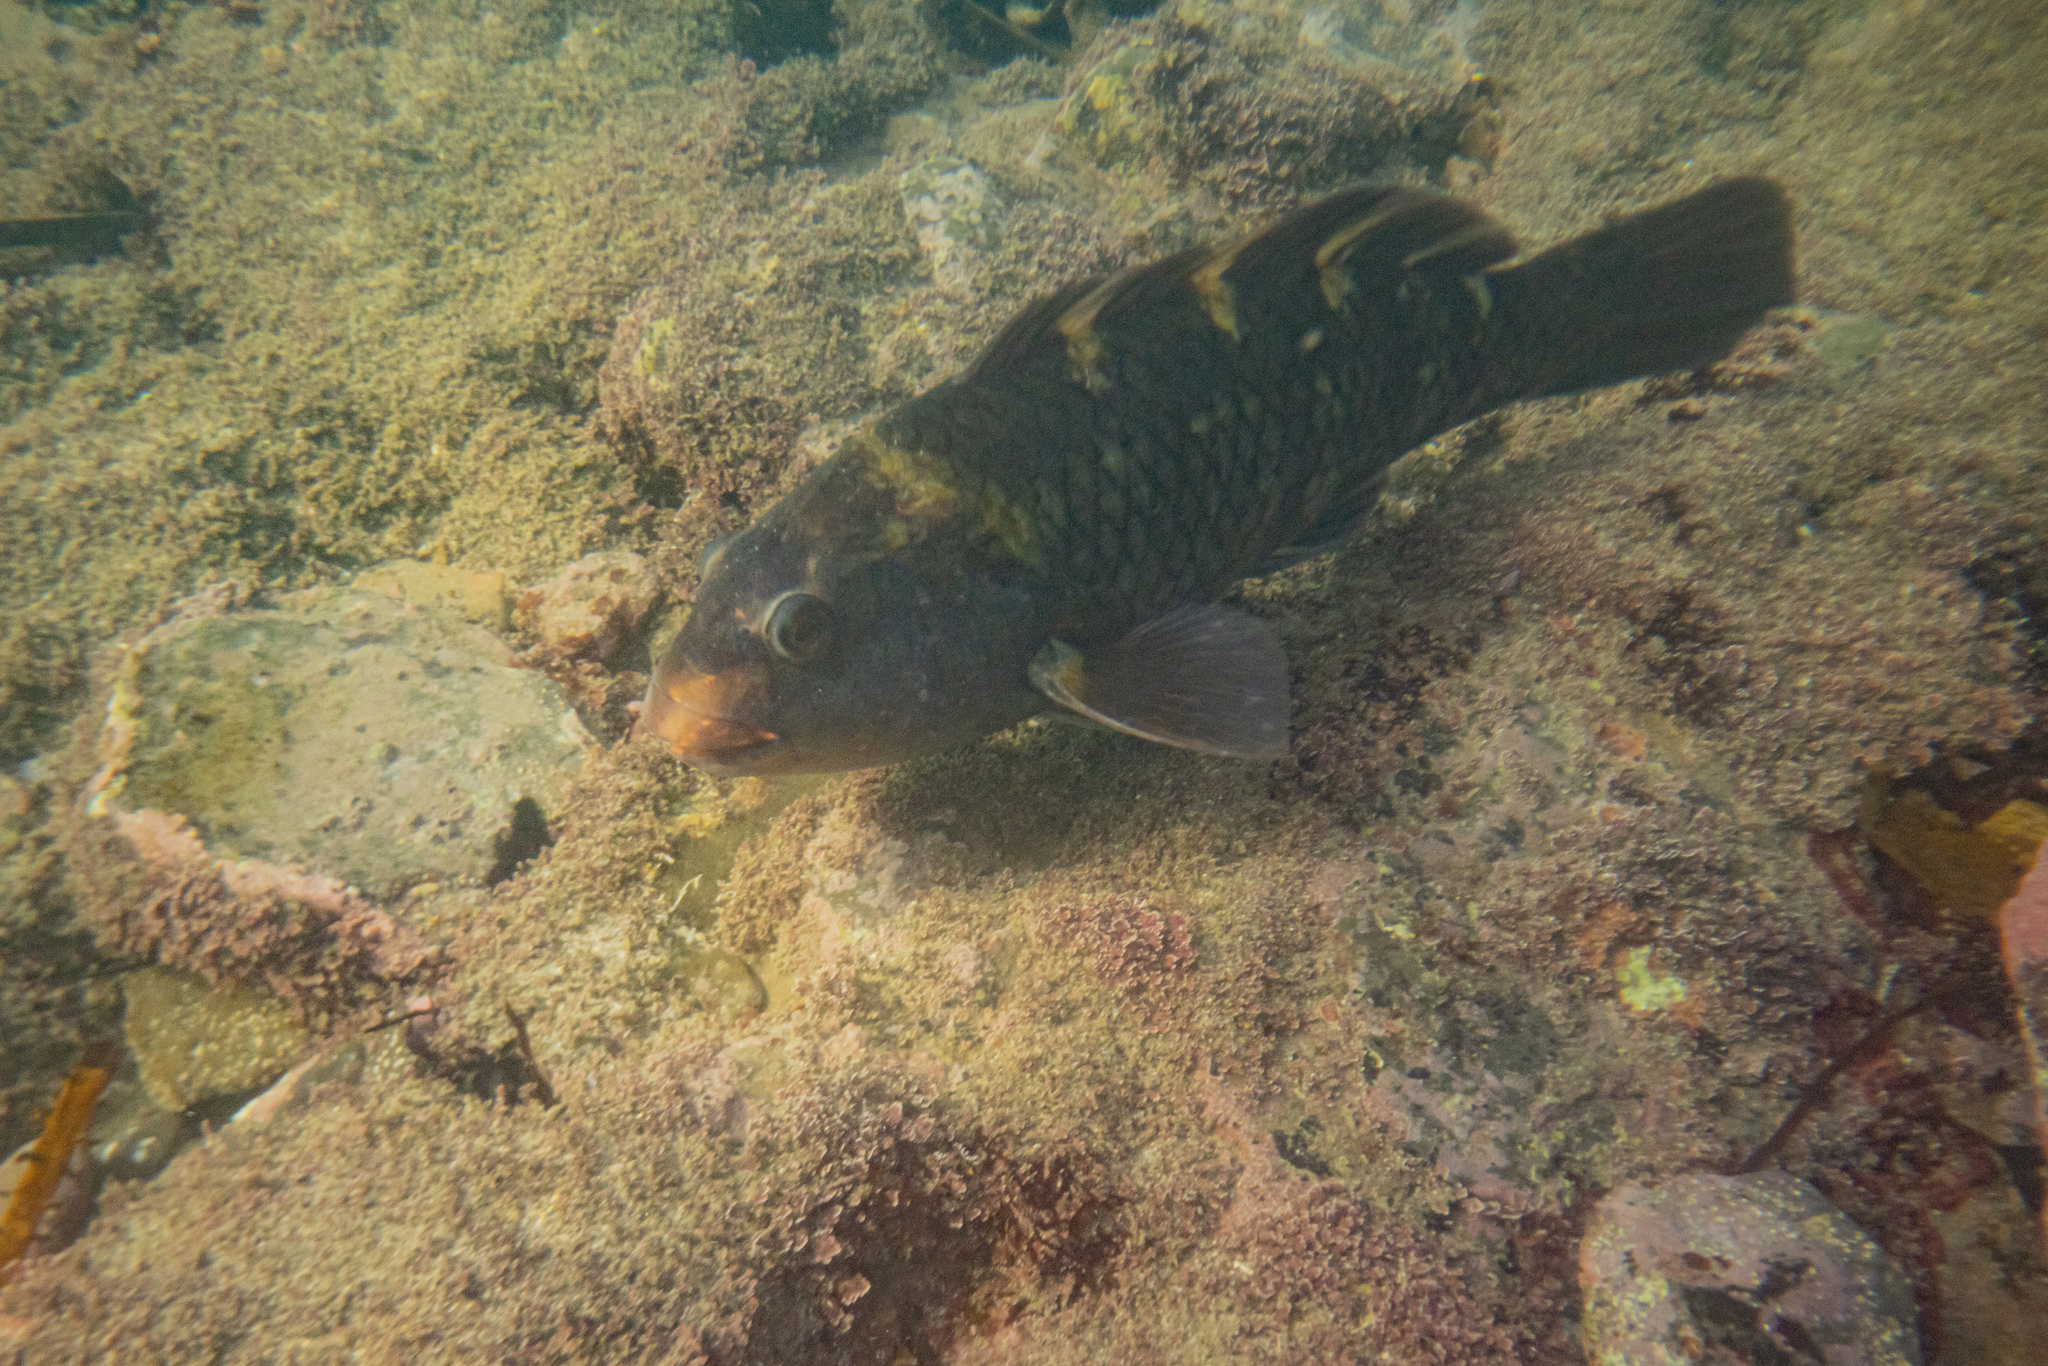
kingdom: Animalia
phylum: Chordata
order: Perciformes
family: Labridae
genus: Notolabrus
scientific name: Notolabrus fucicola
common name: Banded parrotfish
